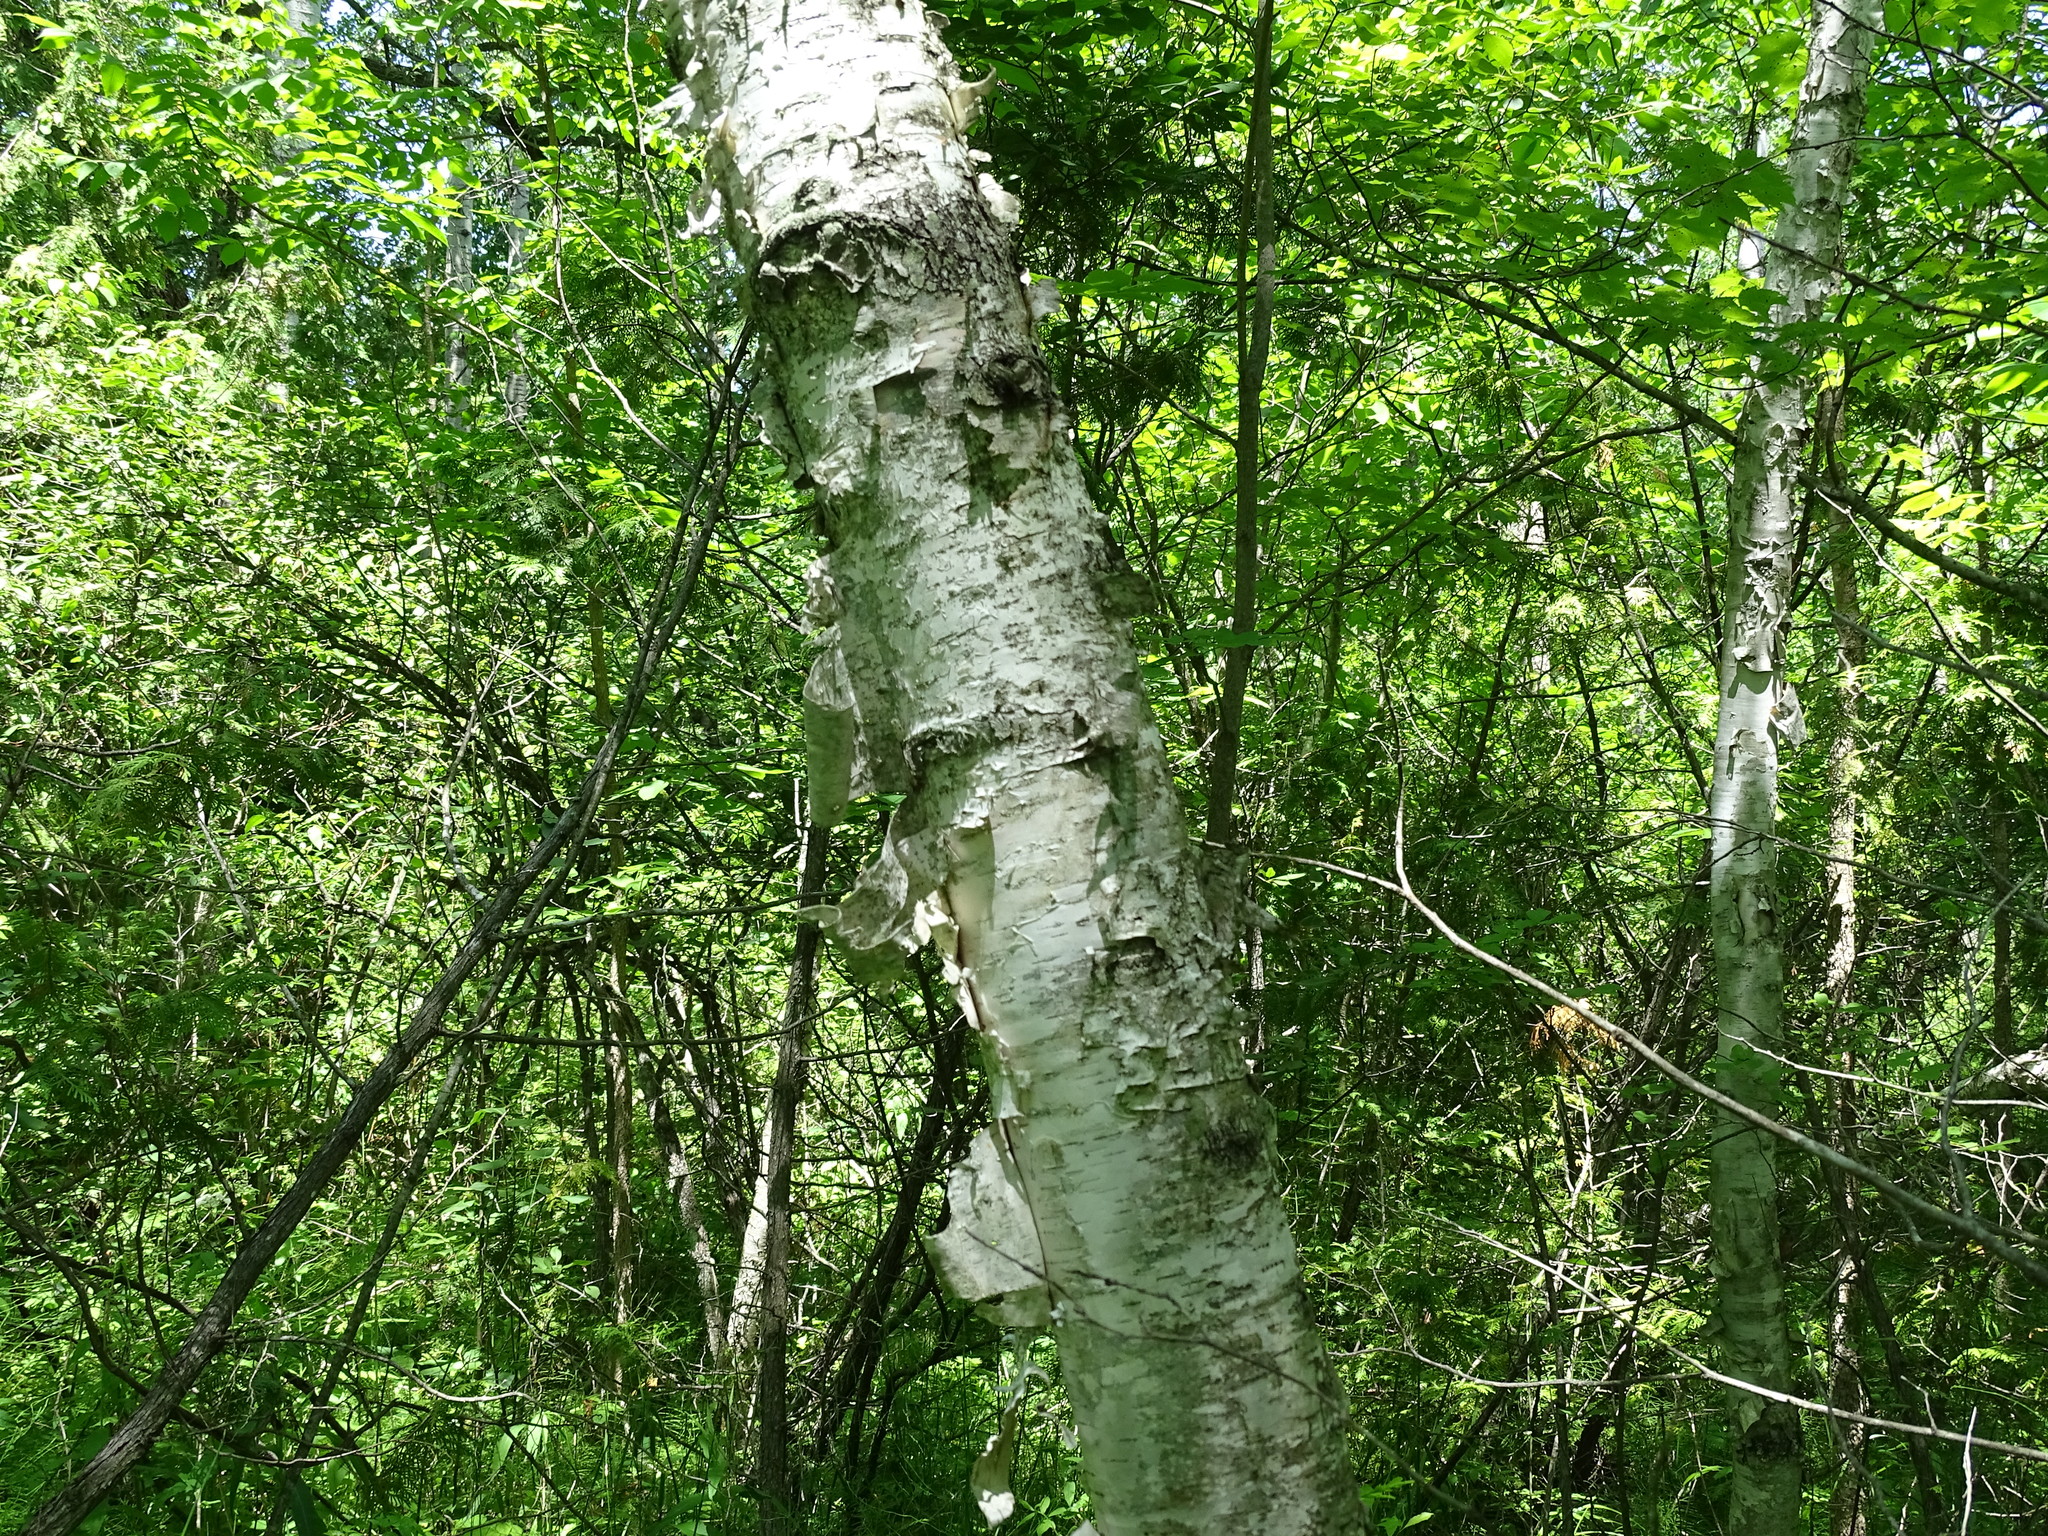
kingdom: Plantae
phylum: Tracheophyta
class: Magnoliopsida
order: Fagales
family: Betulaceae
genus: Betula
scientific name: Betula papyrifera
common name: Paper birch
